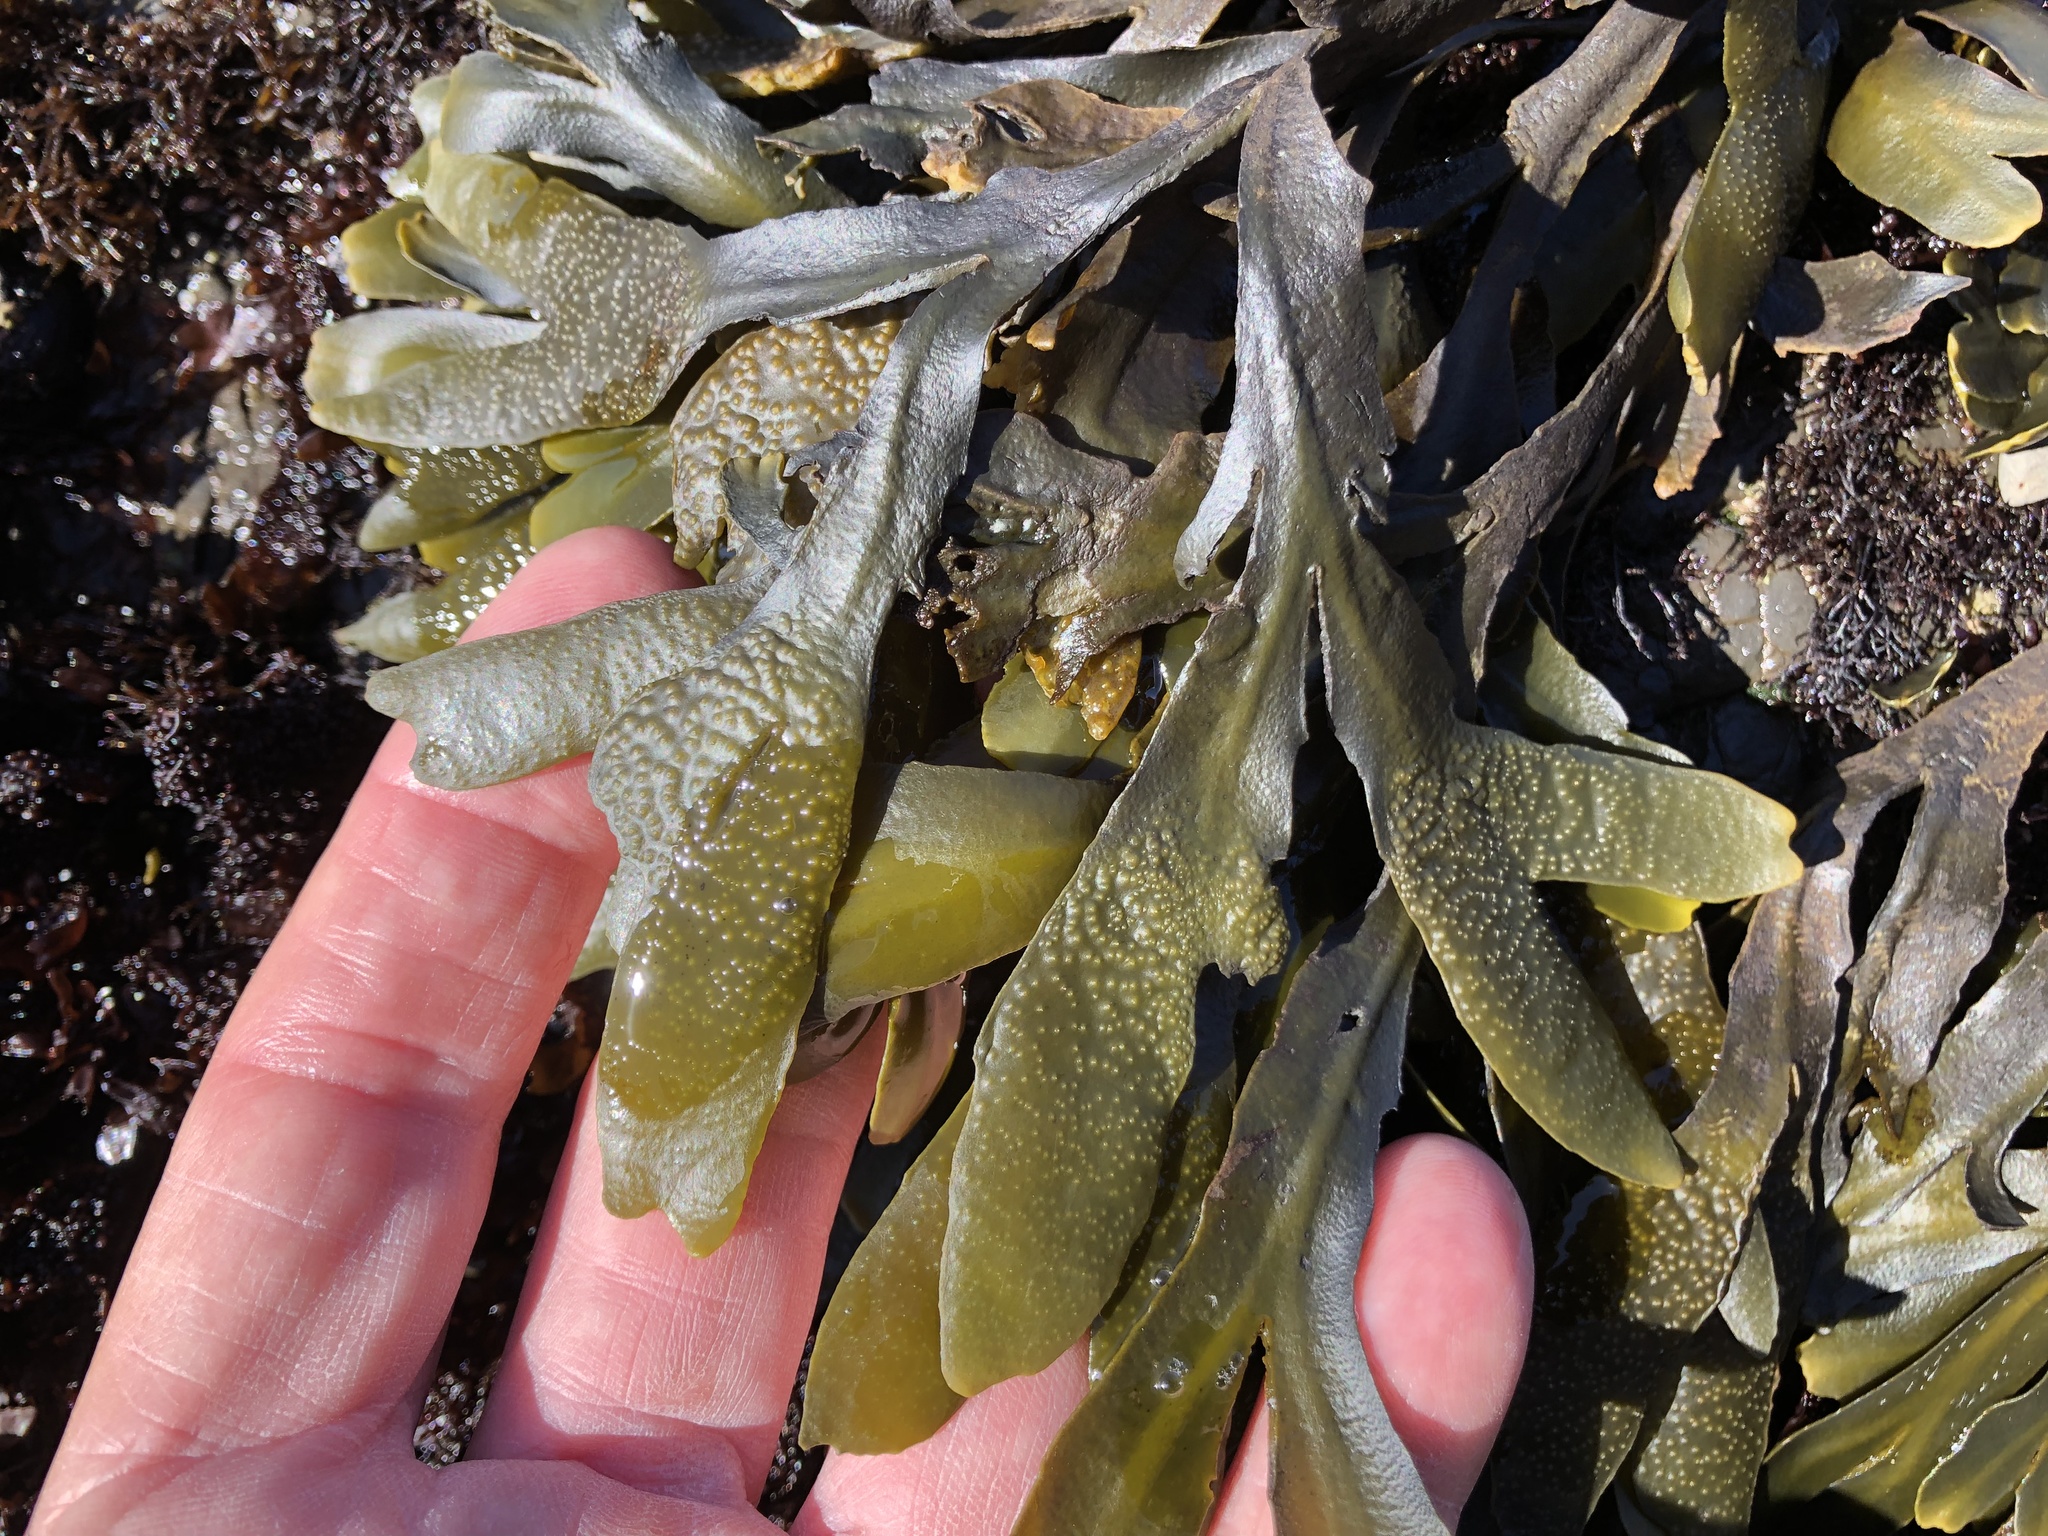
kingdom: Chromista
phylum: Ochrophyta
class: Phaeophyceae
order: Fucales
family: Fucaceae
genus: Fucus
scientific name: Fucus distichus
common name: Rockweed
